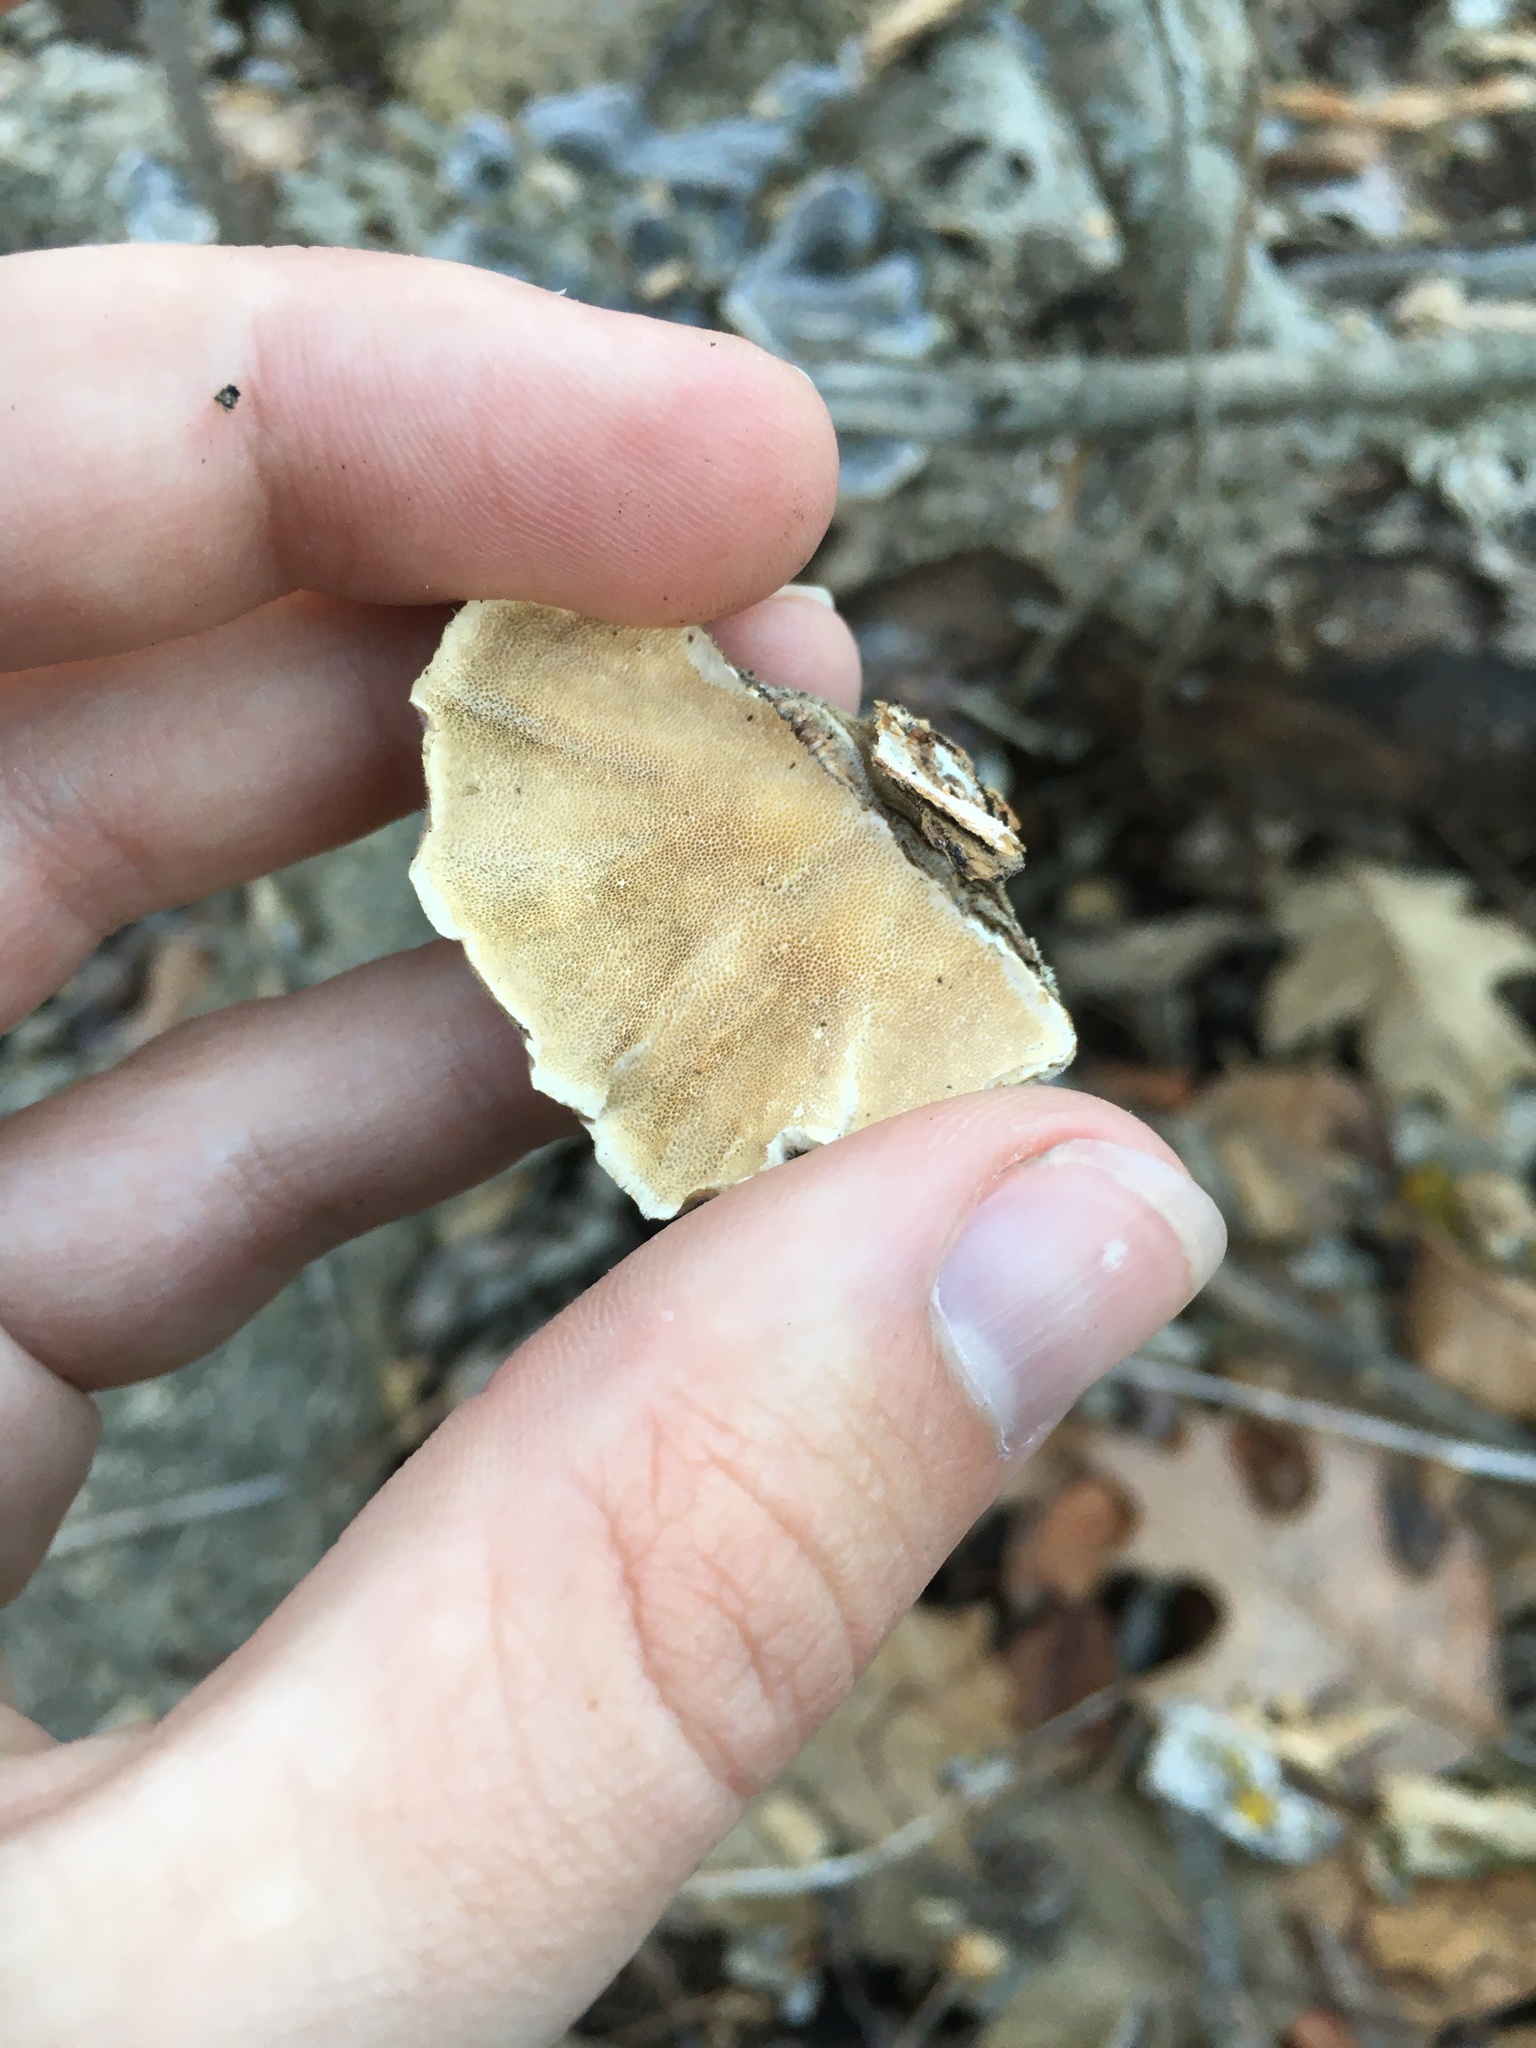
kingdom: Fungi
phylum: Basidiomycota
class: Agaricomycetes
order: Polyporales
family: Polyporaceae
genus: Trametes
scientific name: Trametes versicolor
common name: Turkeytail
